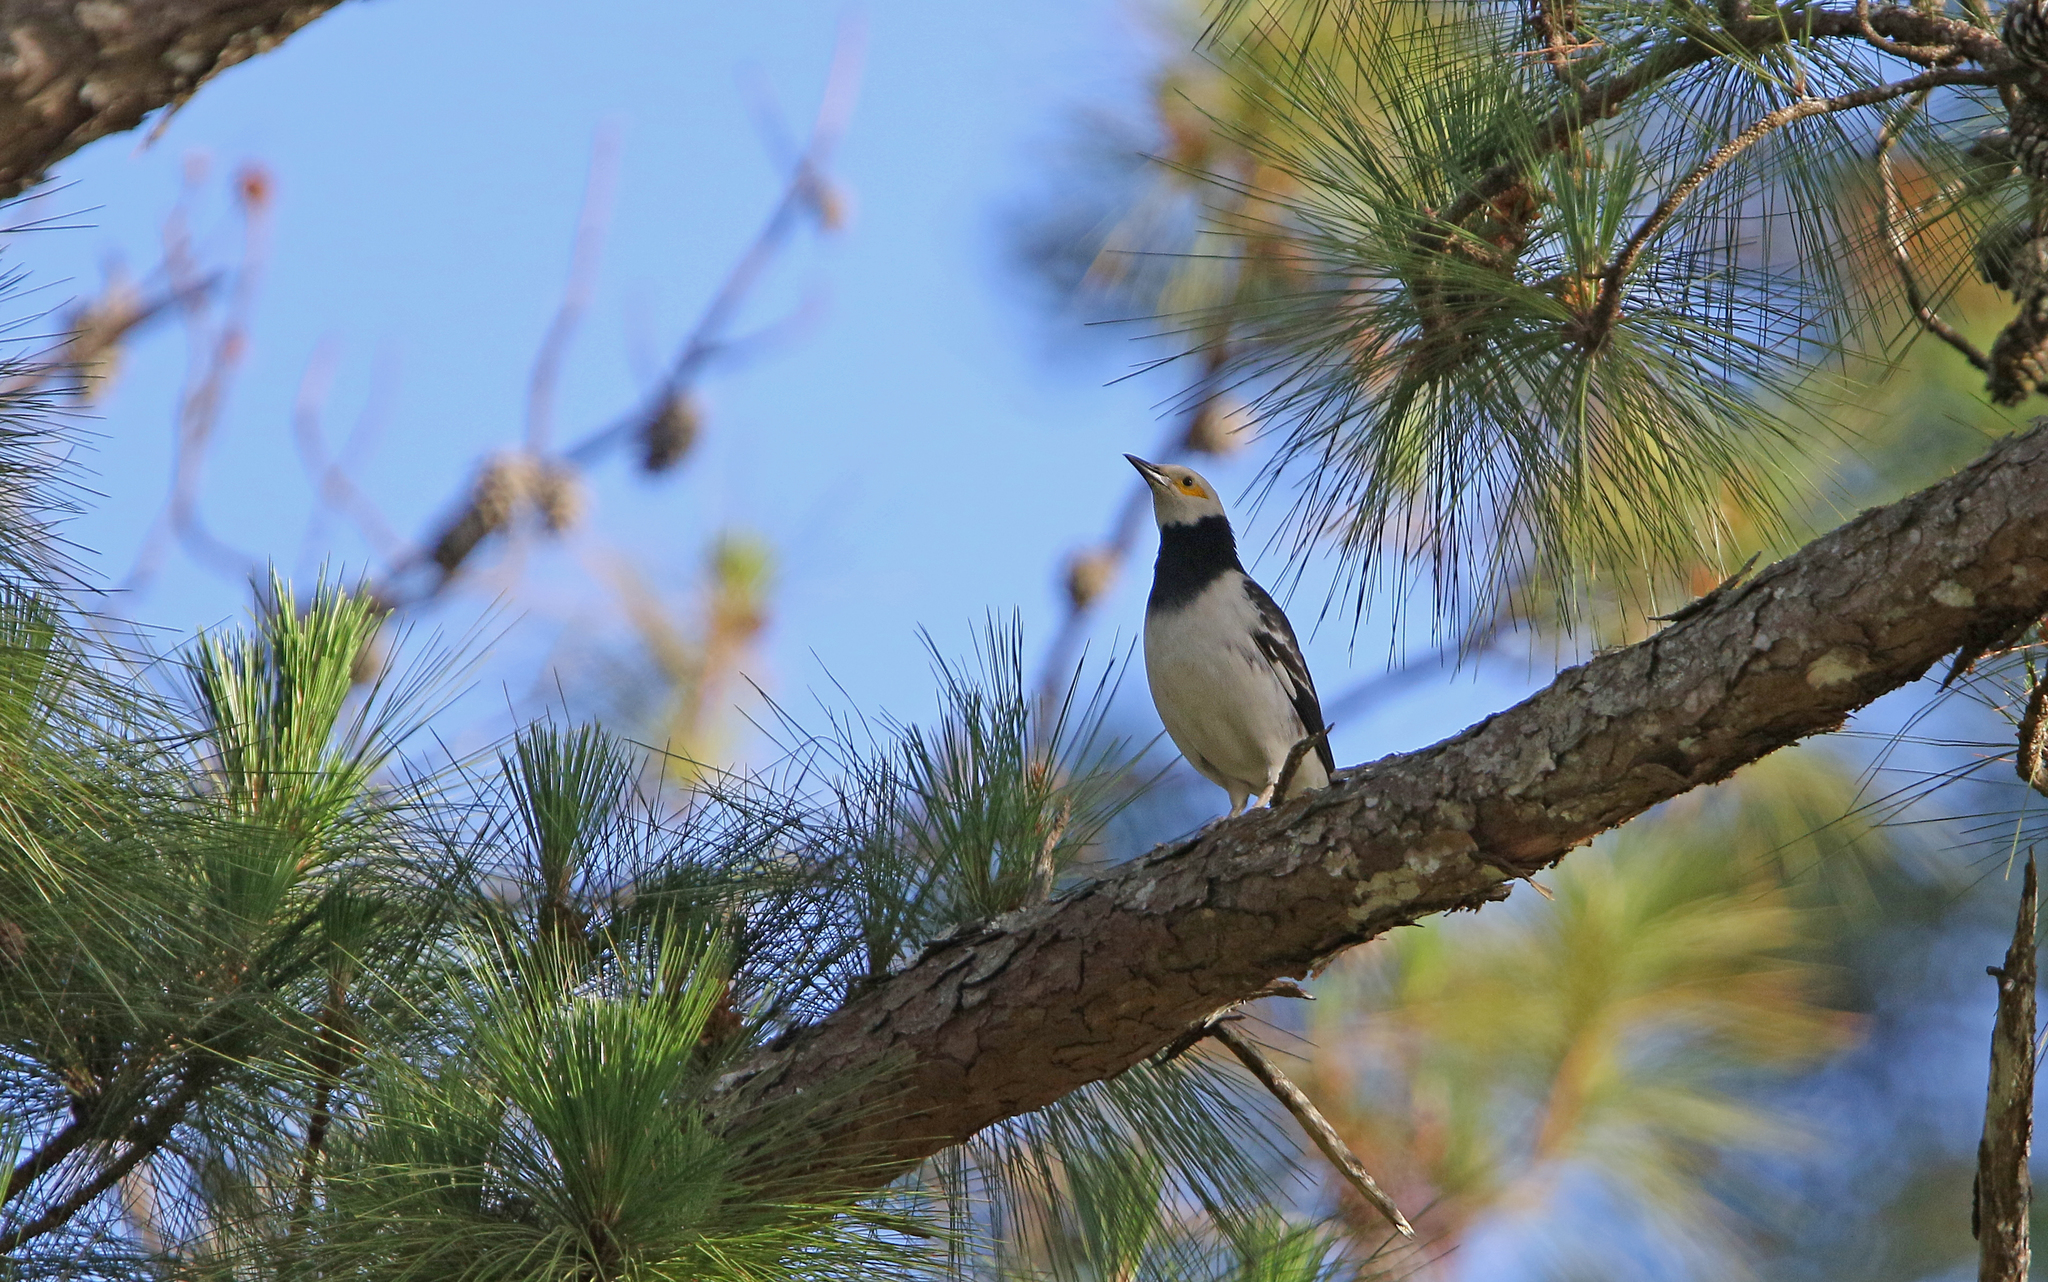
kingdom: Animalia
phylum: Chordata
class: Aves
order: Passeriformes
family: Sturnidae
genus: Gracupica
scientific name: Gracupica nigricollis
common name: Black-collared starling
